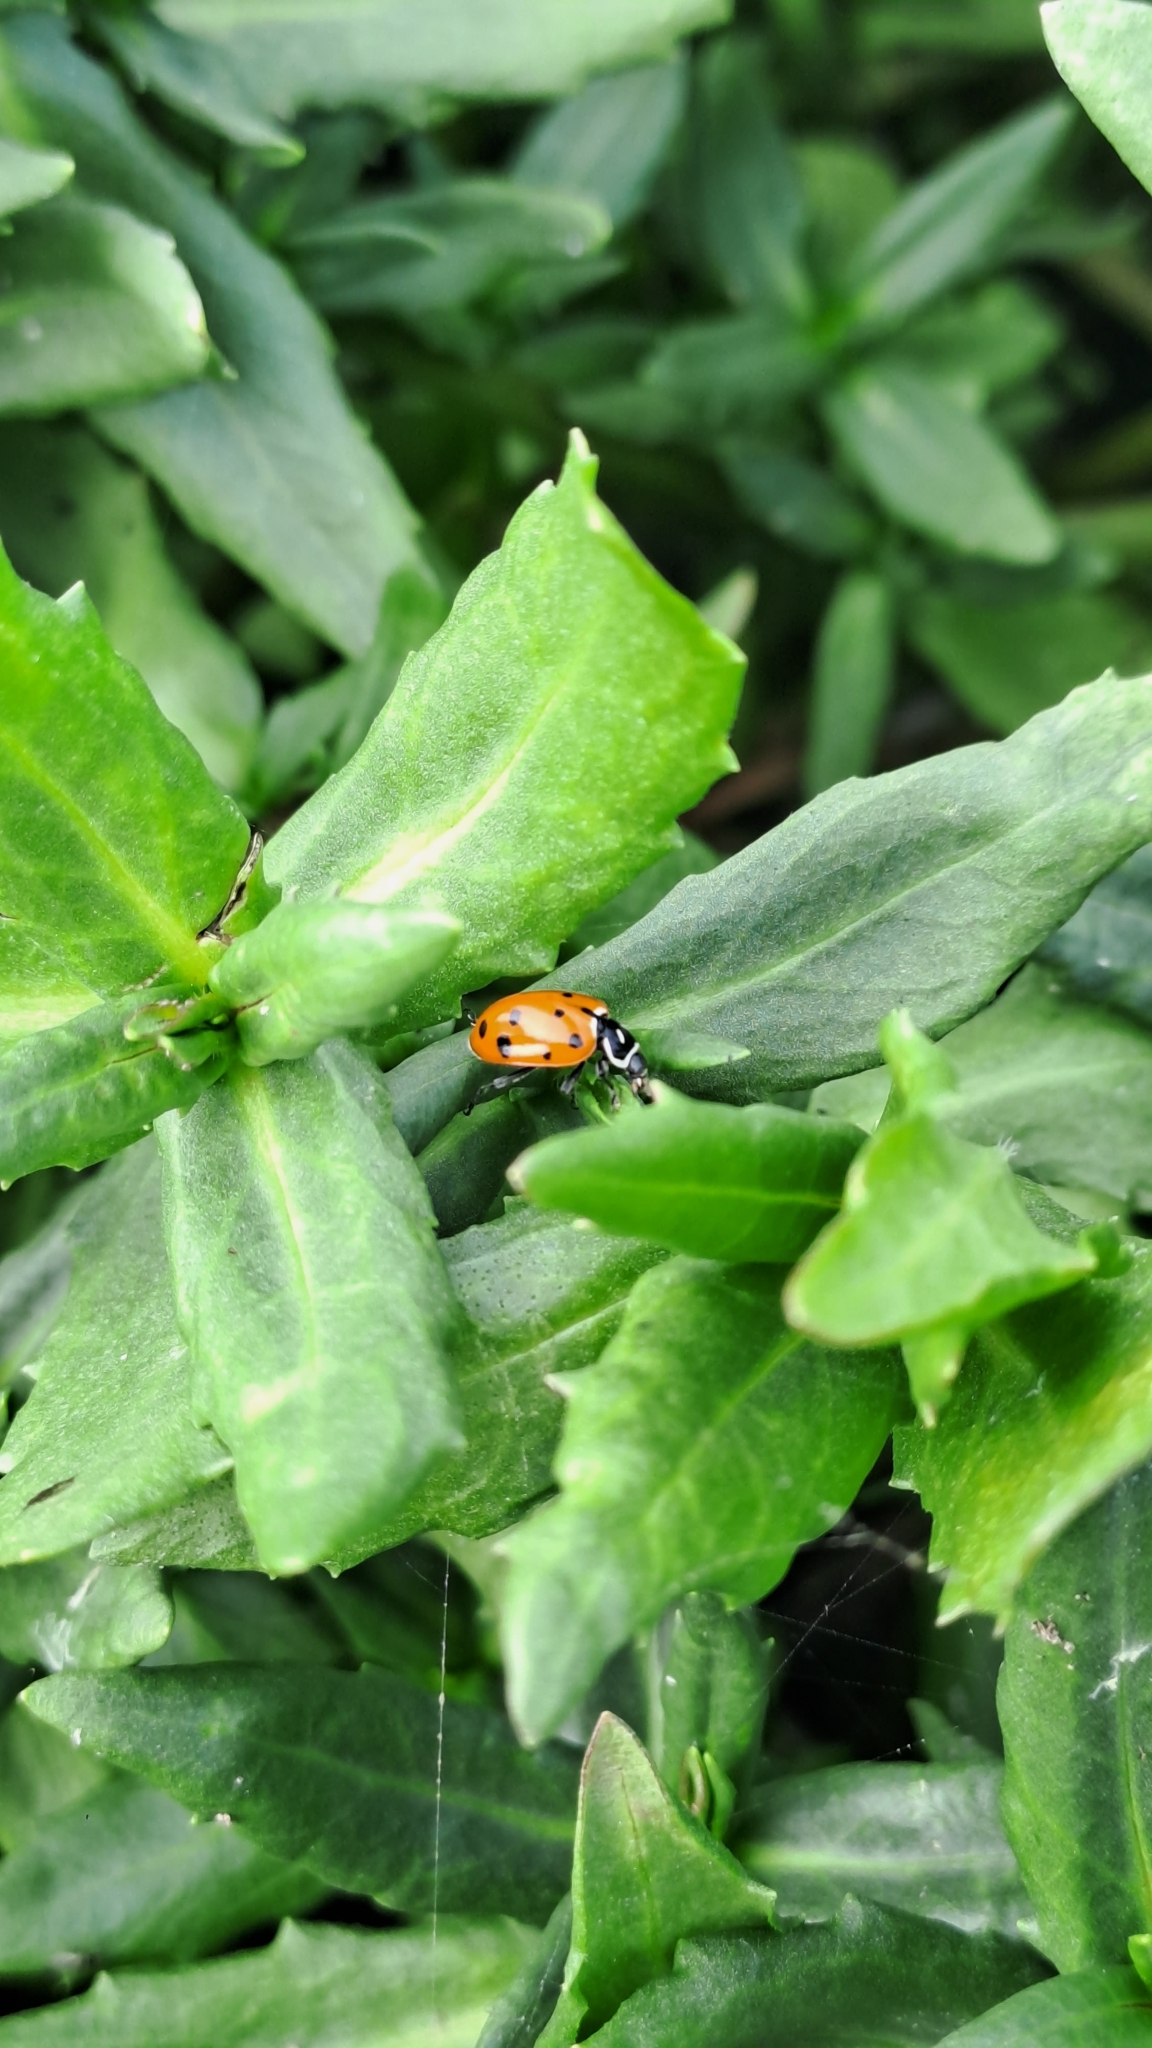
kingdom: Animalia
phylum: Arthropoda
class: Insecta
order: Coleoptera
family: Coccinellidae
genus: Hippodamia
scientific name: Hippodamia convergens
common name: Convergent lady beetle
